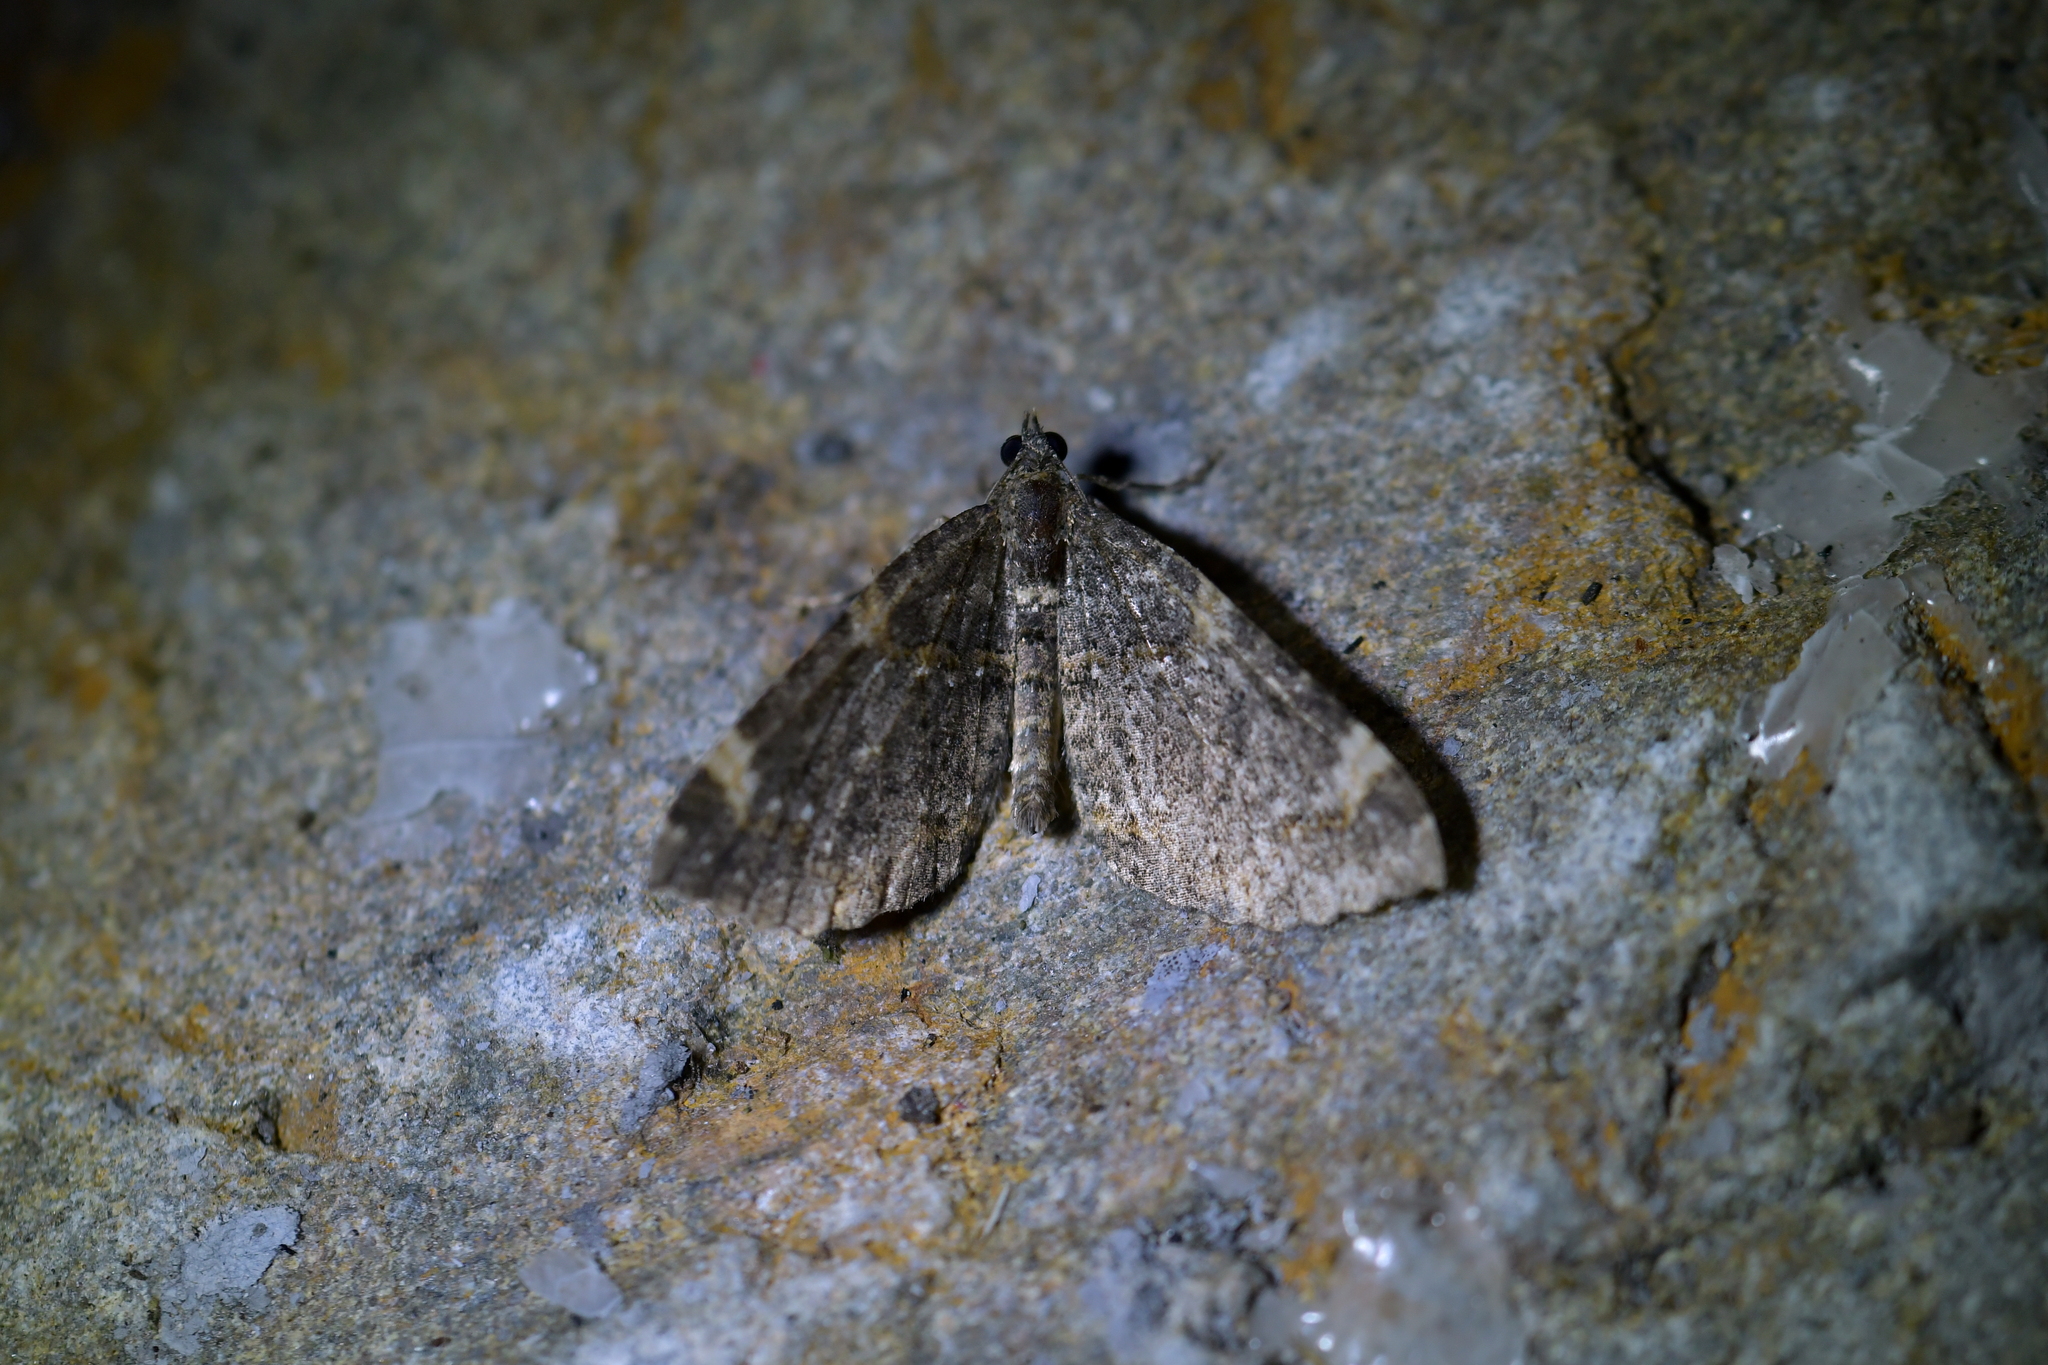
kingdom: Animalia
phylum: Arthropoda
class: Insecta
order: Lepidoptera
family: Geometridae
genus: Hydriomena
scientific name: Hydriomena arida
